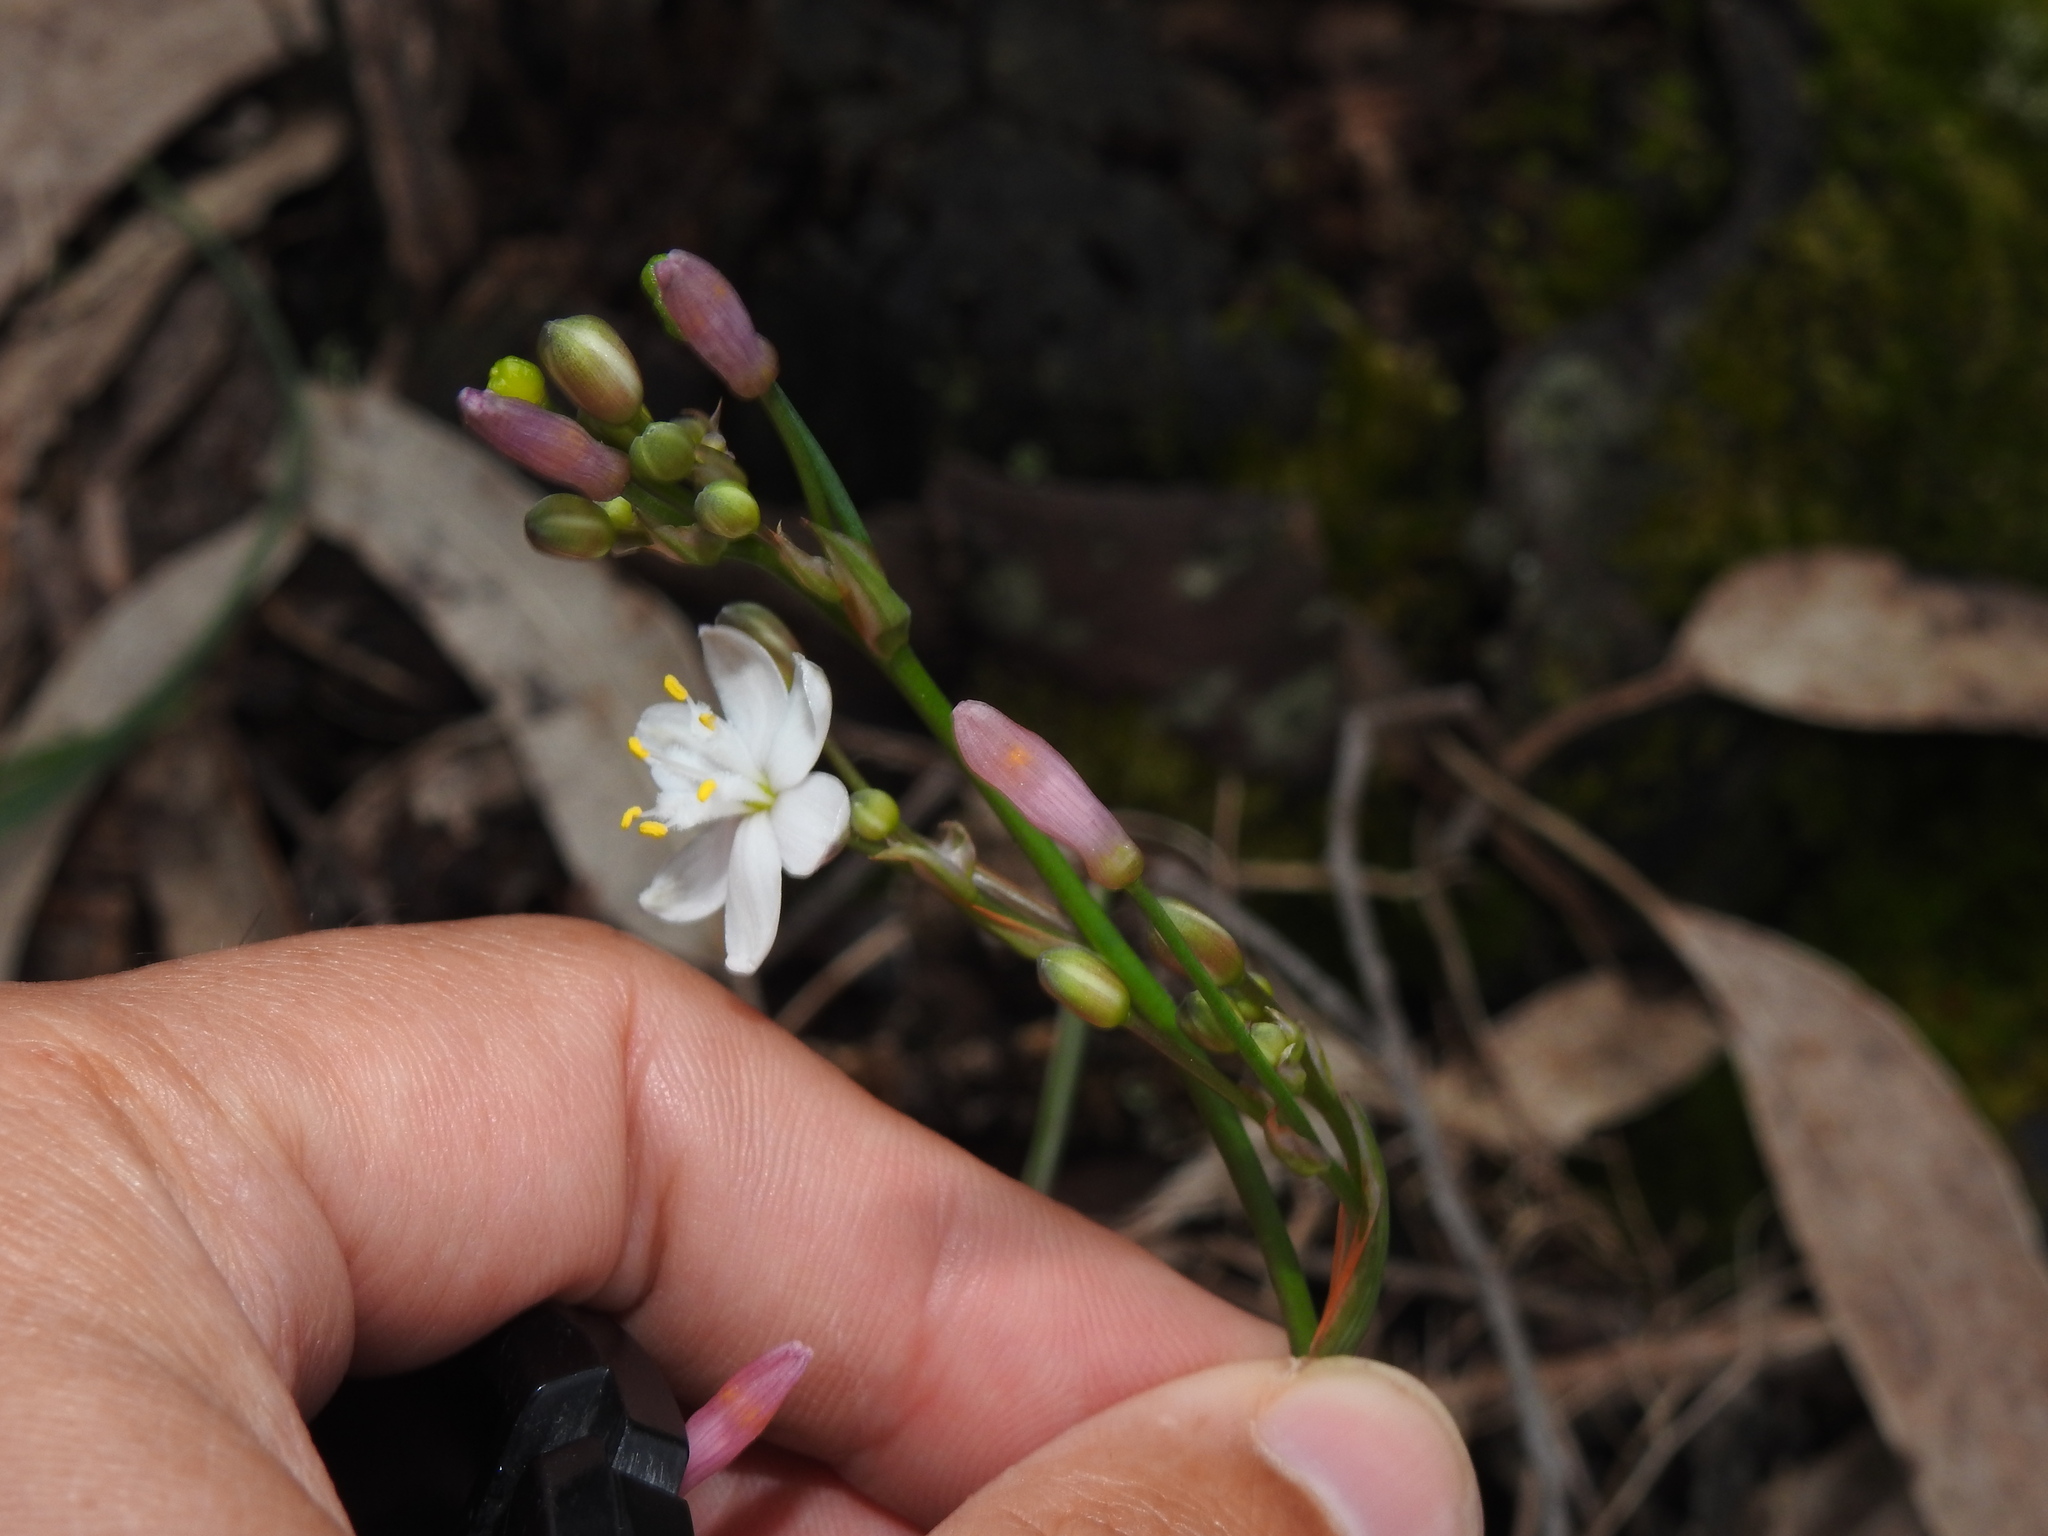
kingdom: Plantae
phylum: Tracheophyta
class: Liliopsida
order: Asparagales
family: Asphodelaceae
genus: Simethis
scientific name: Simethis mattiazzii
